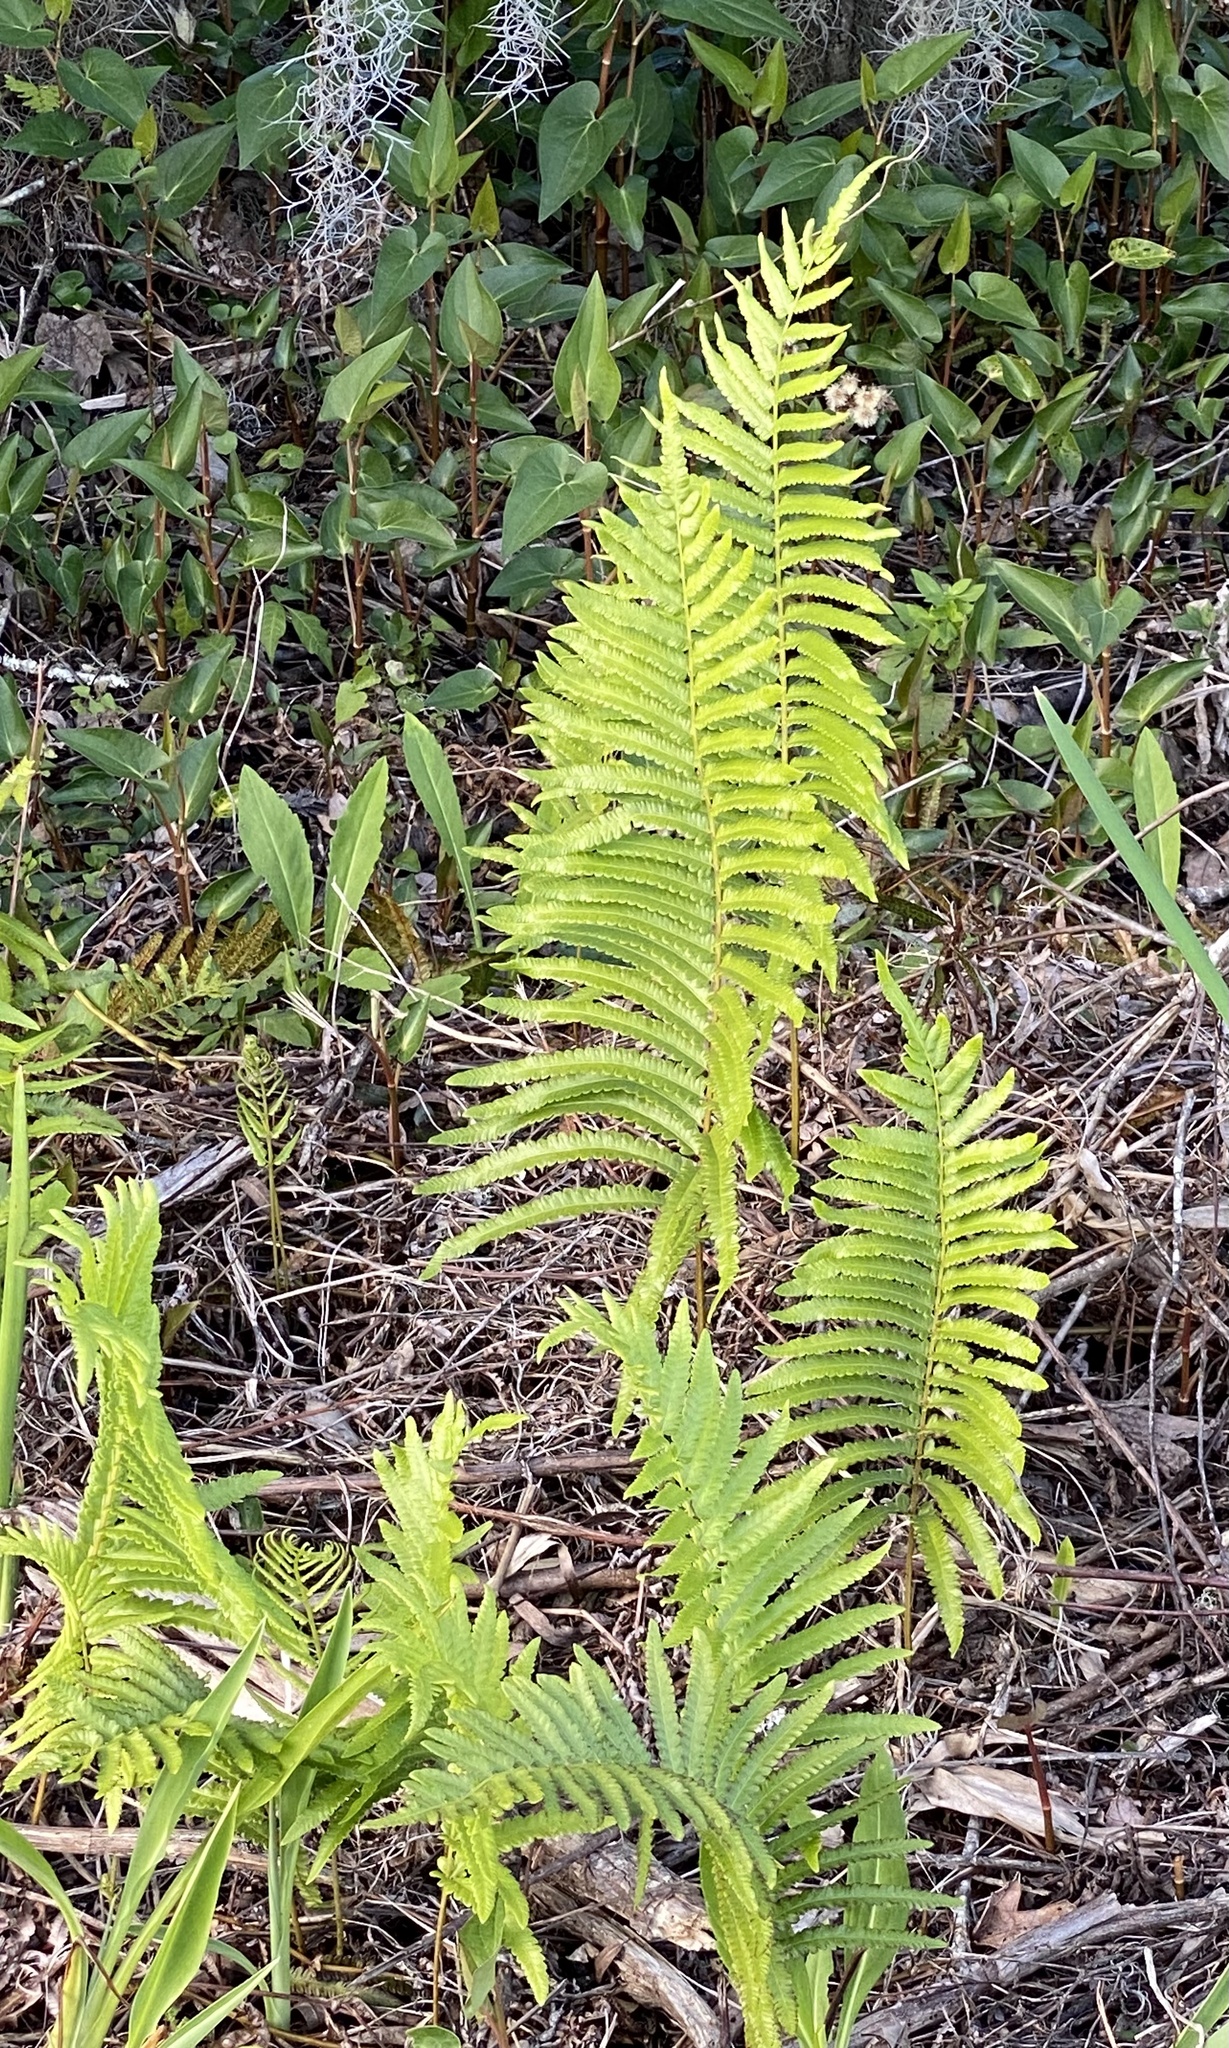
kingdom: Plantae
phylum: Tracheophyta
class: Polypodiopsida
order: Polypodiales
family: Thelypteridaceae
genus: Cyclosorus
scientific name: Cyclosorus interruptus
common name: Neke fern
